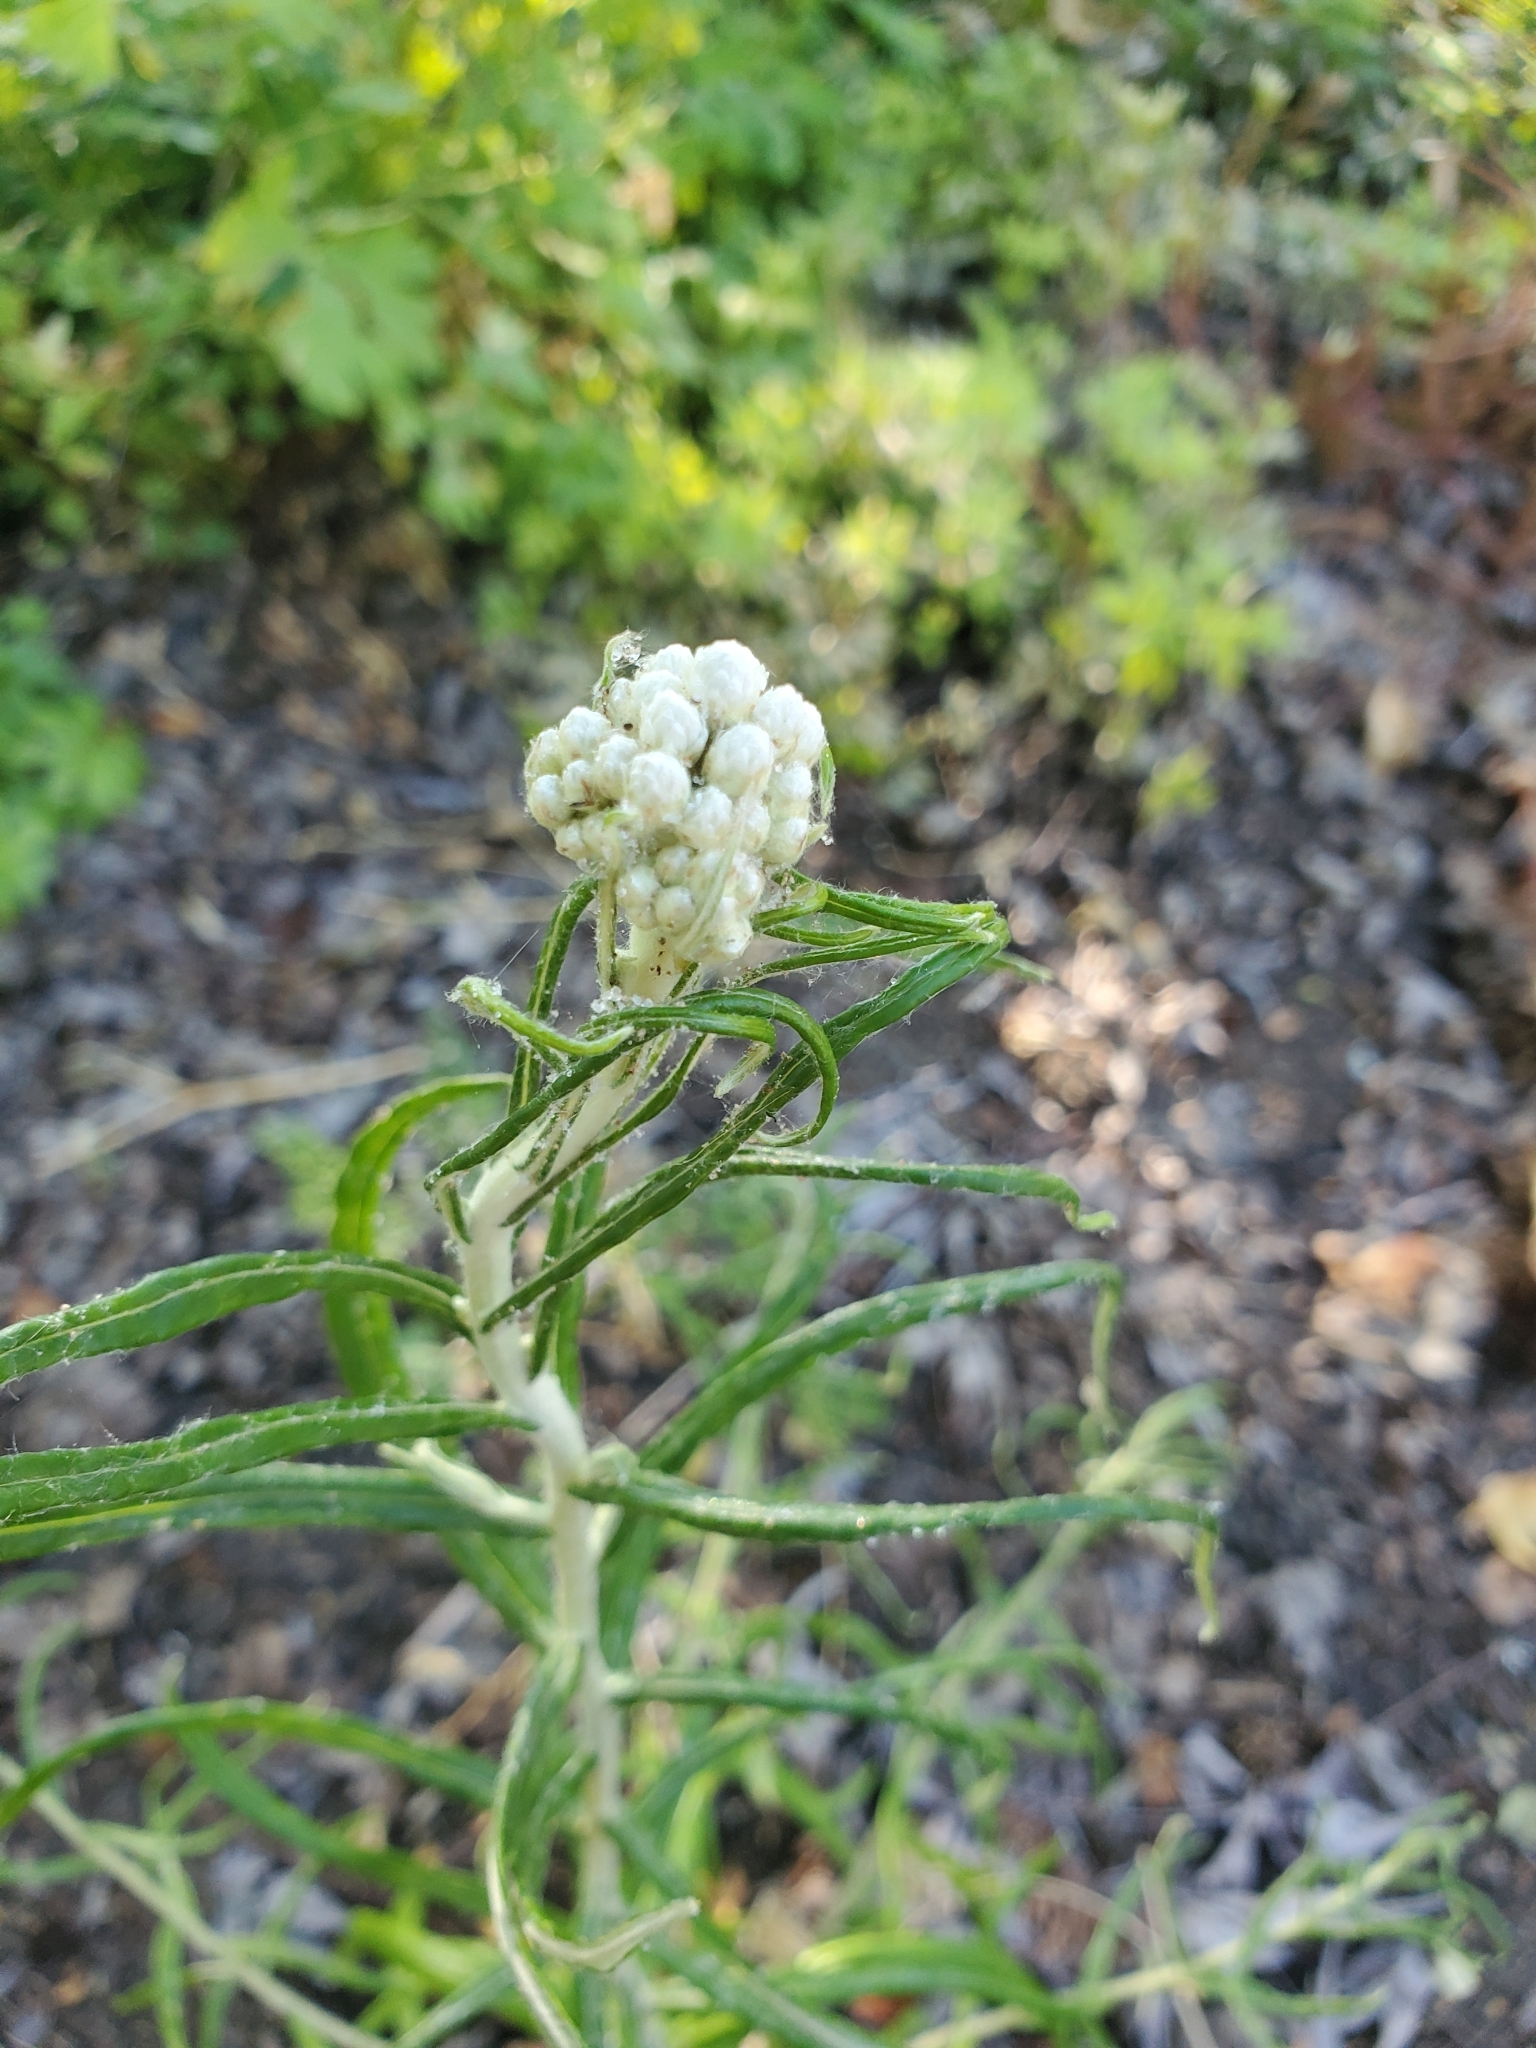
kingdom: Plantae
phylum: Tracheophyta
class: Magnoliopsida
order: Asterales
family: Asteraceae
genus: Anaphalis
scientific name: Anaphalis margaritacea
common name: Pearly everlasting
